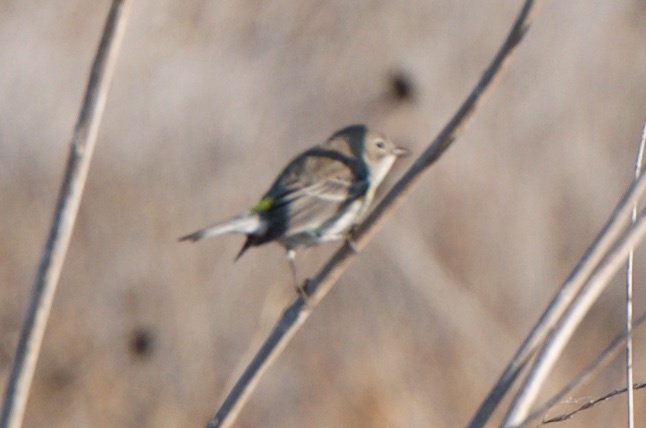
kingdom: Animalia
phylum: Chordata
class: Aves
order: Passeriformes
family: Parulidae
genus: Setophaga
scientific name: Setophaga coronata
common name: Myrtle warbler
